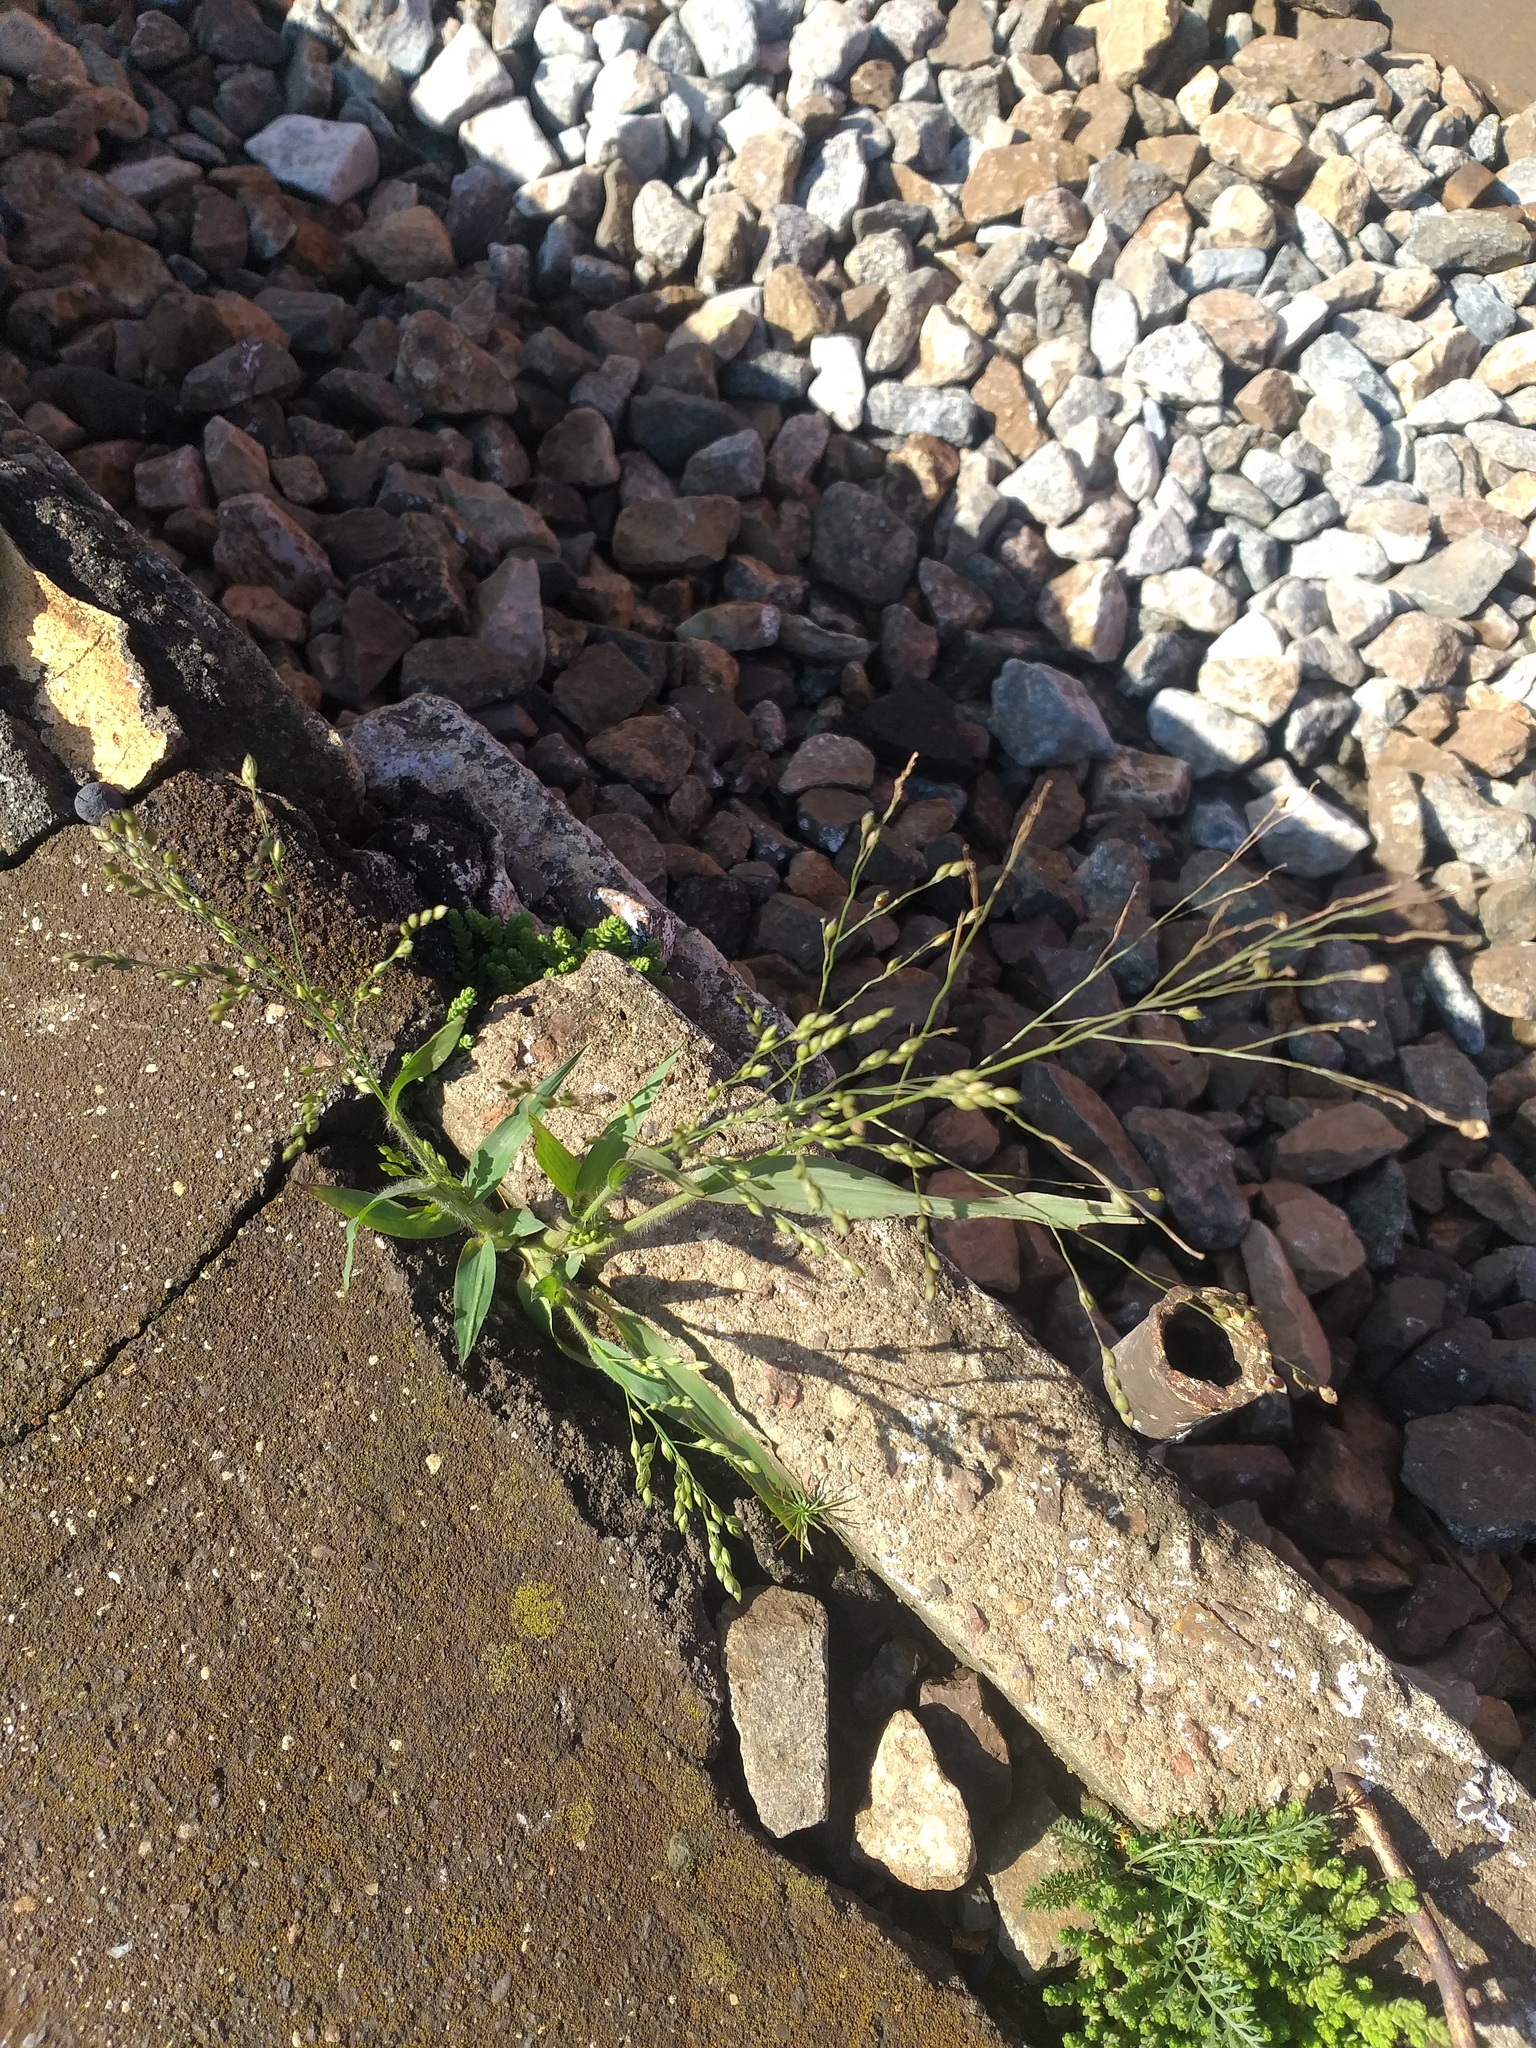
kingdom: Plantae
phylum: Tracheophyta
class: Liliopsida
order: Poales
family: Poaceae
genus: Panicum
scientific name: Panicum miliaceum
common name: Common millet
